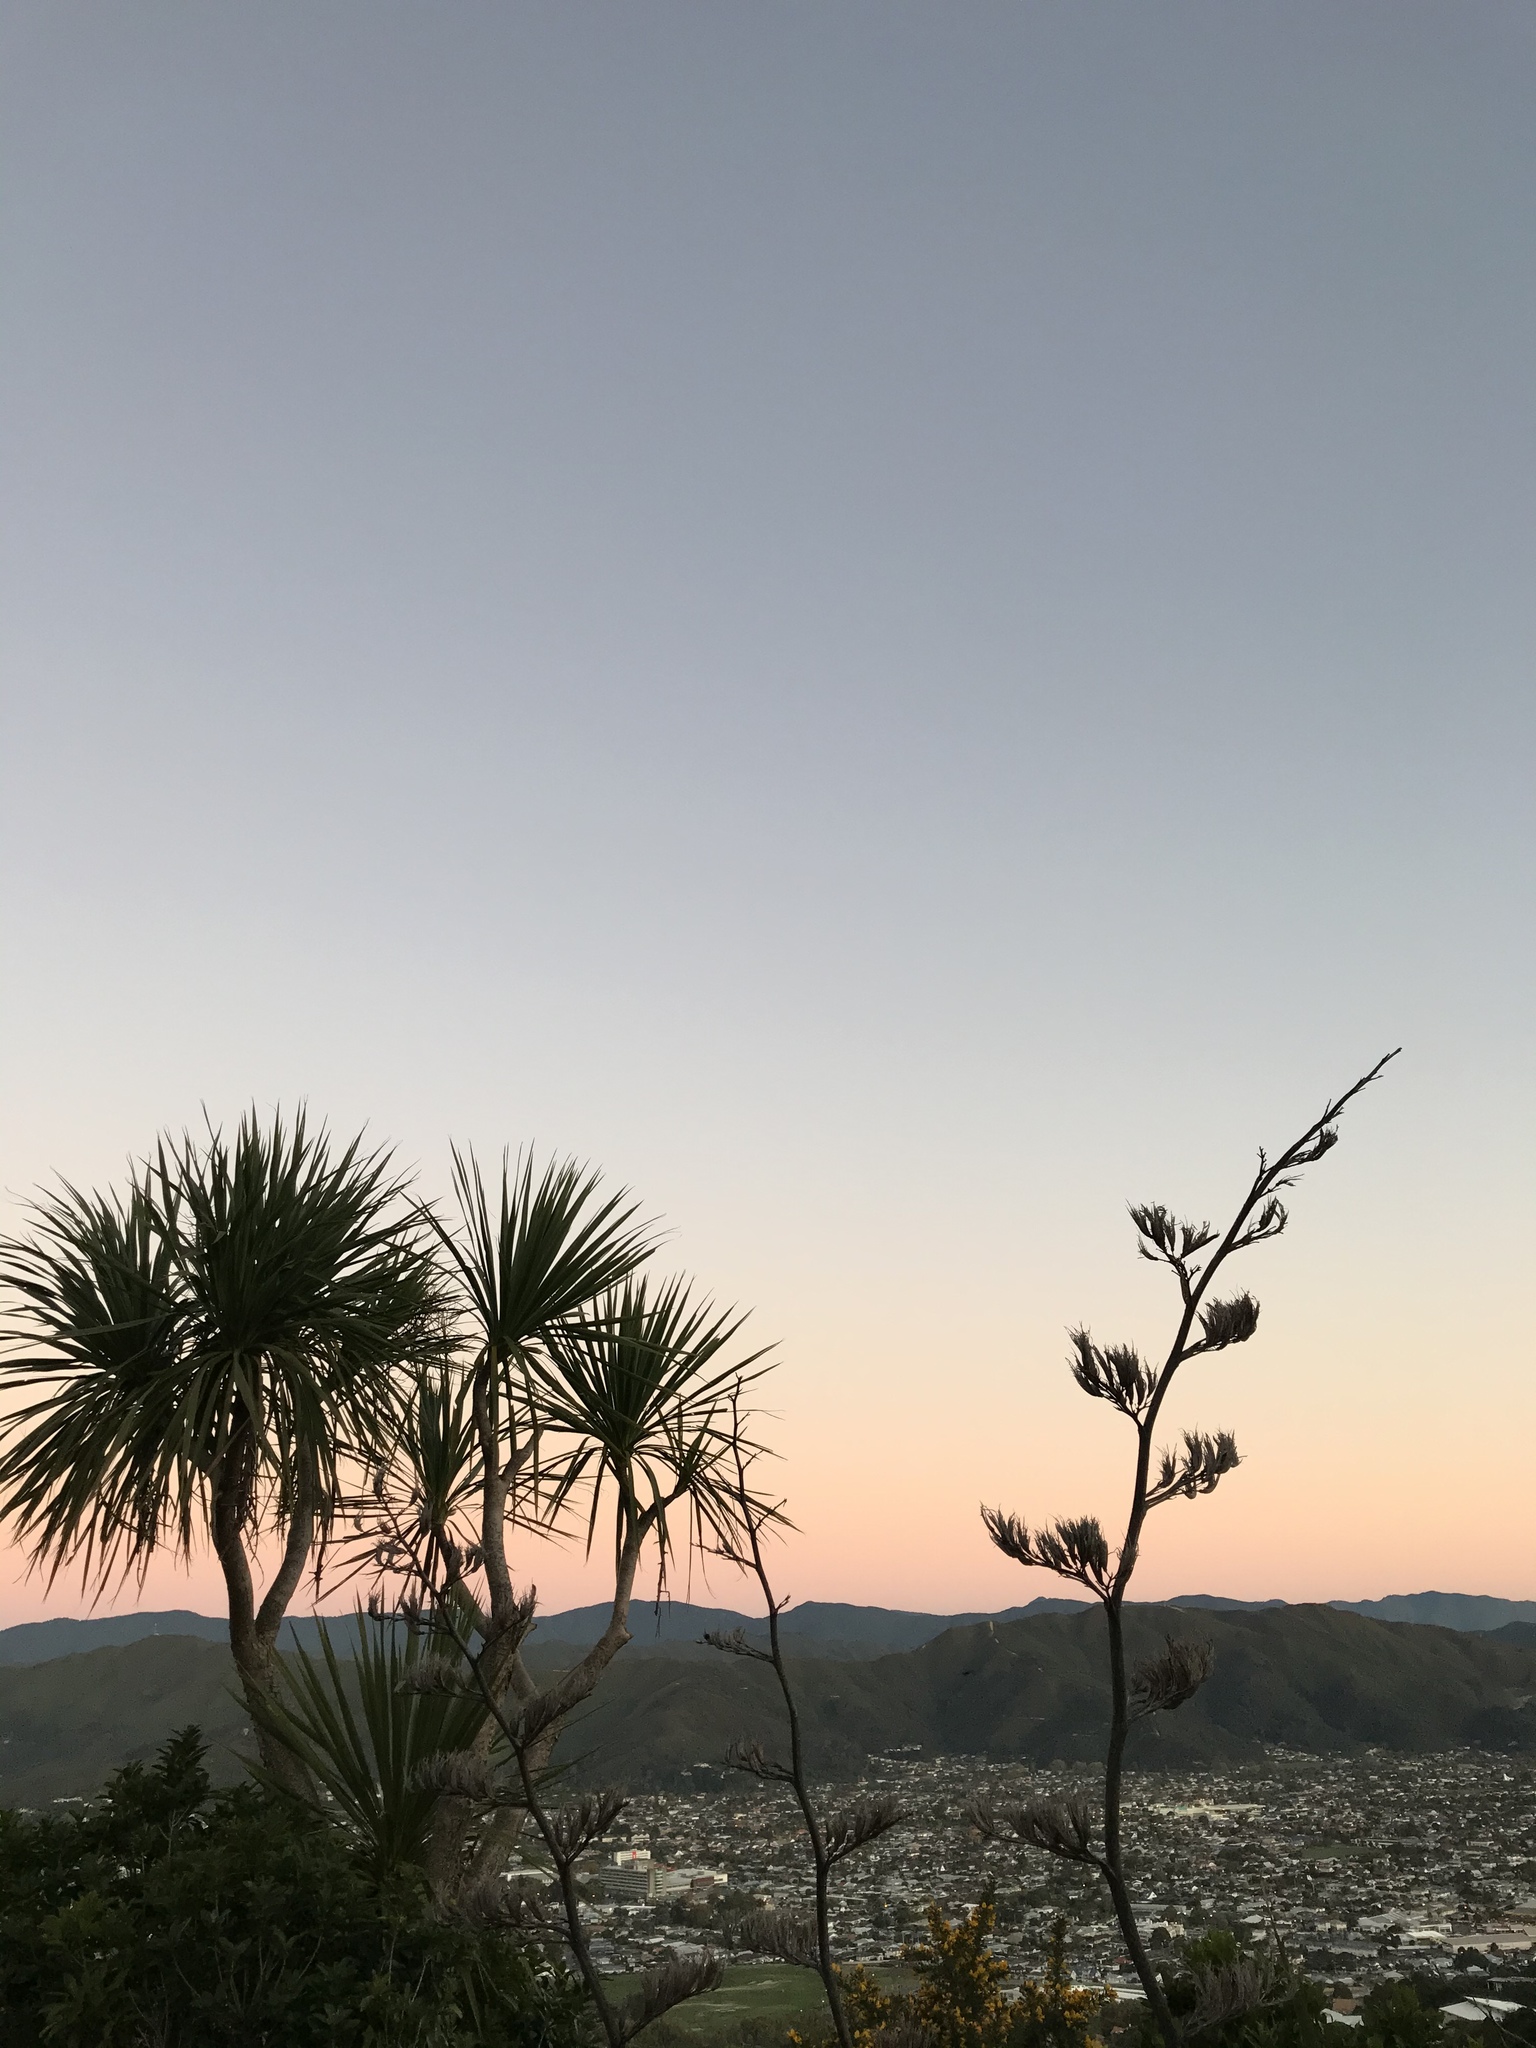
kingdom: Plantae
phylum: Tracheophyta
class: Liliopsida
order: Asparagales
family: Asphodelaceae
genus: Phormium
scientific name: Phormium tenax
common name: New zealand flax
